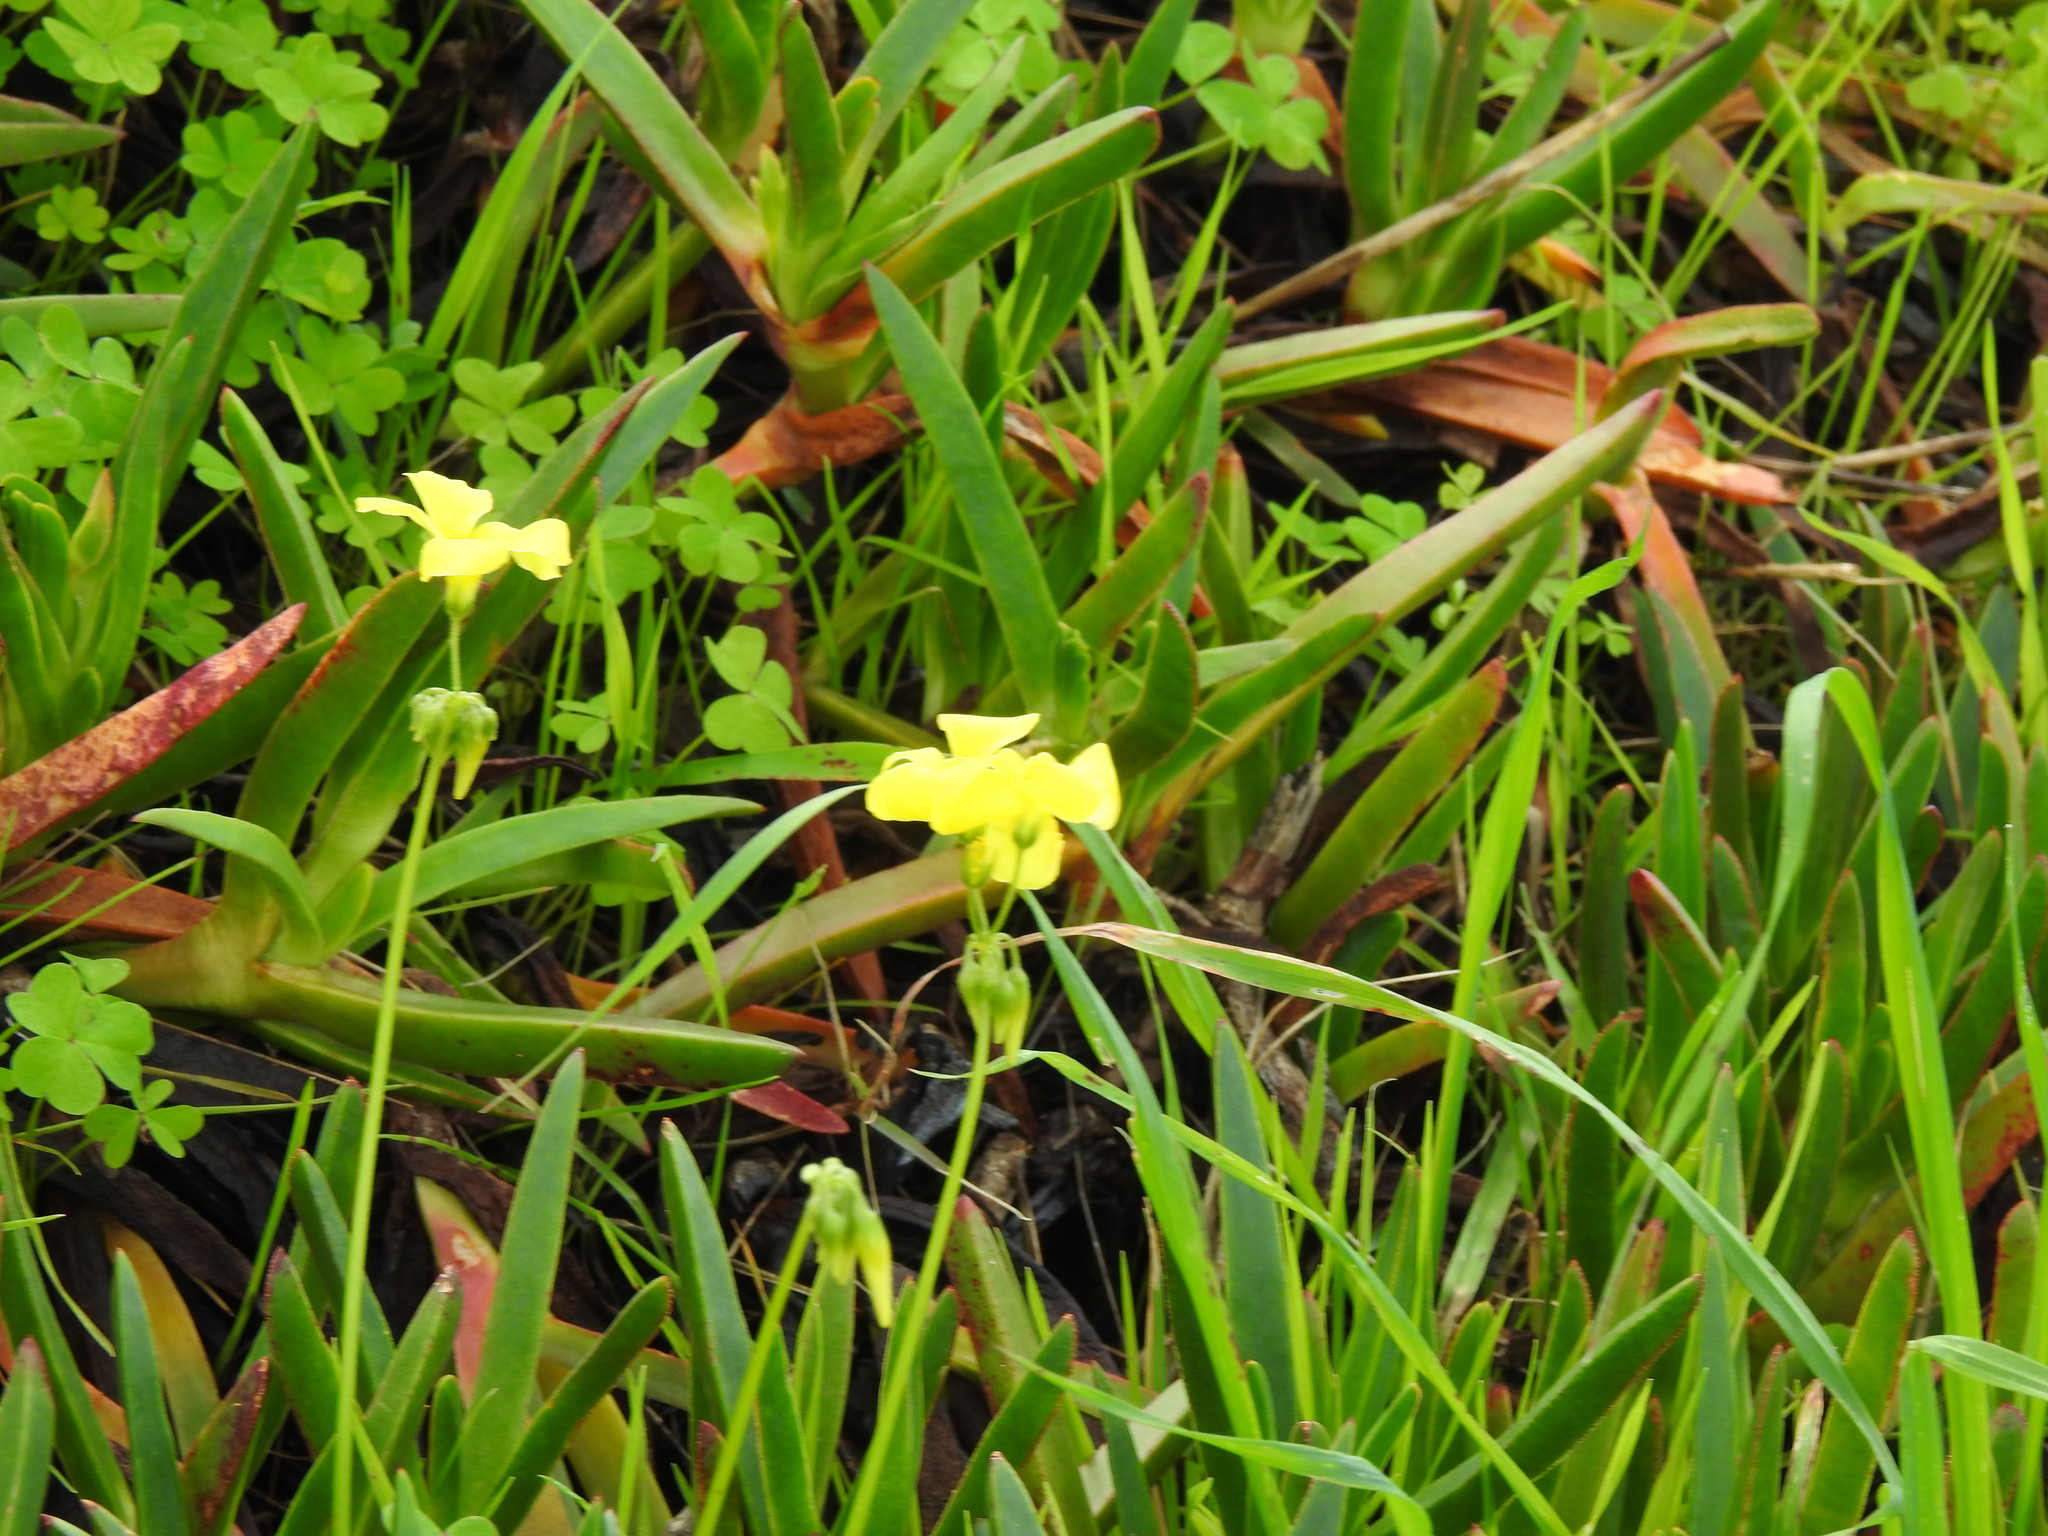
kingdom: Plantae
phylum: Tracheophyta
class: Magnoliopsida
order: Oxalidales
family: Oxalidaceae
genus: Oxalis
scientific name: Oxalis pes-caprae
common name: Bermuda-buttercup
